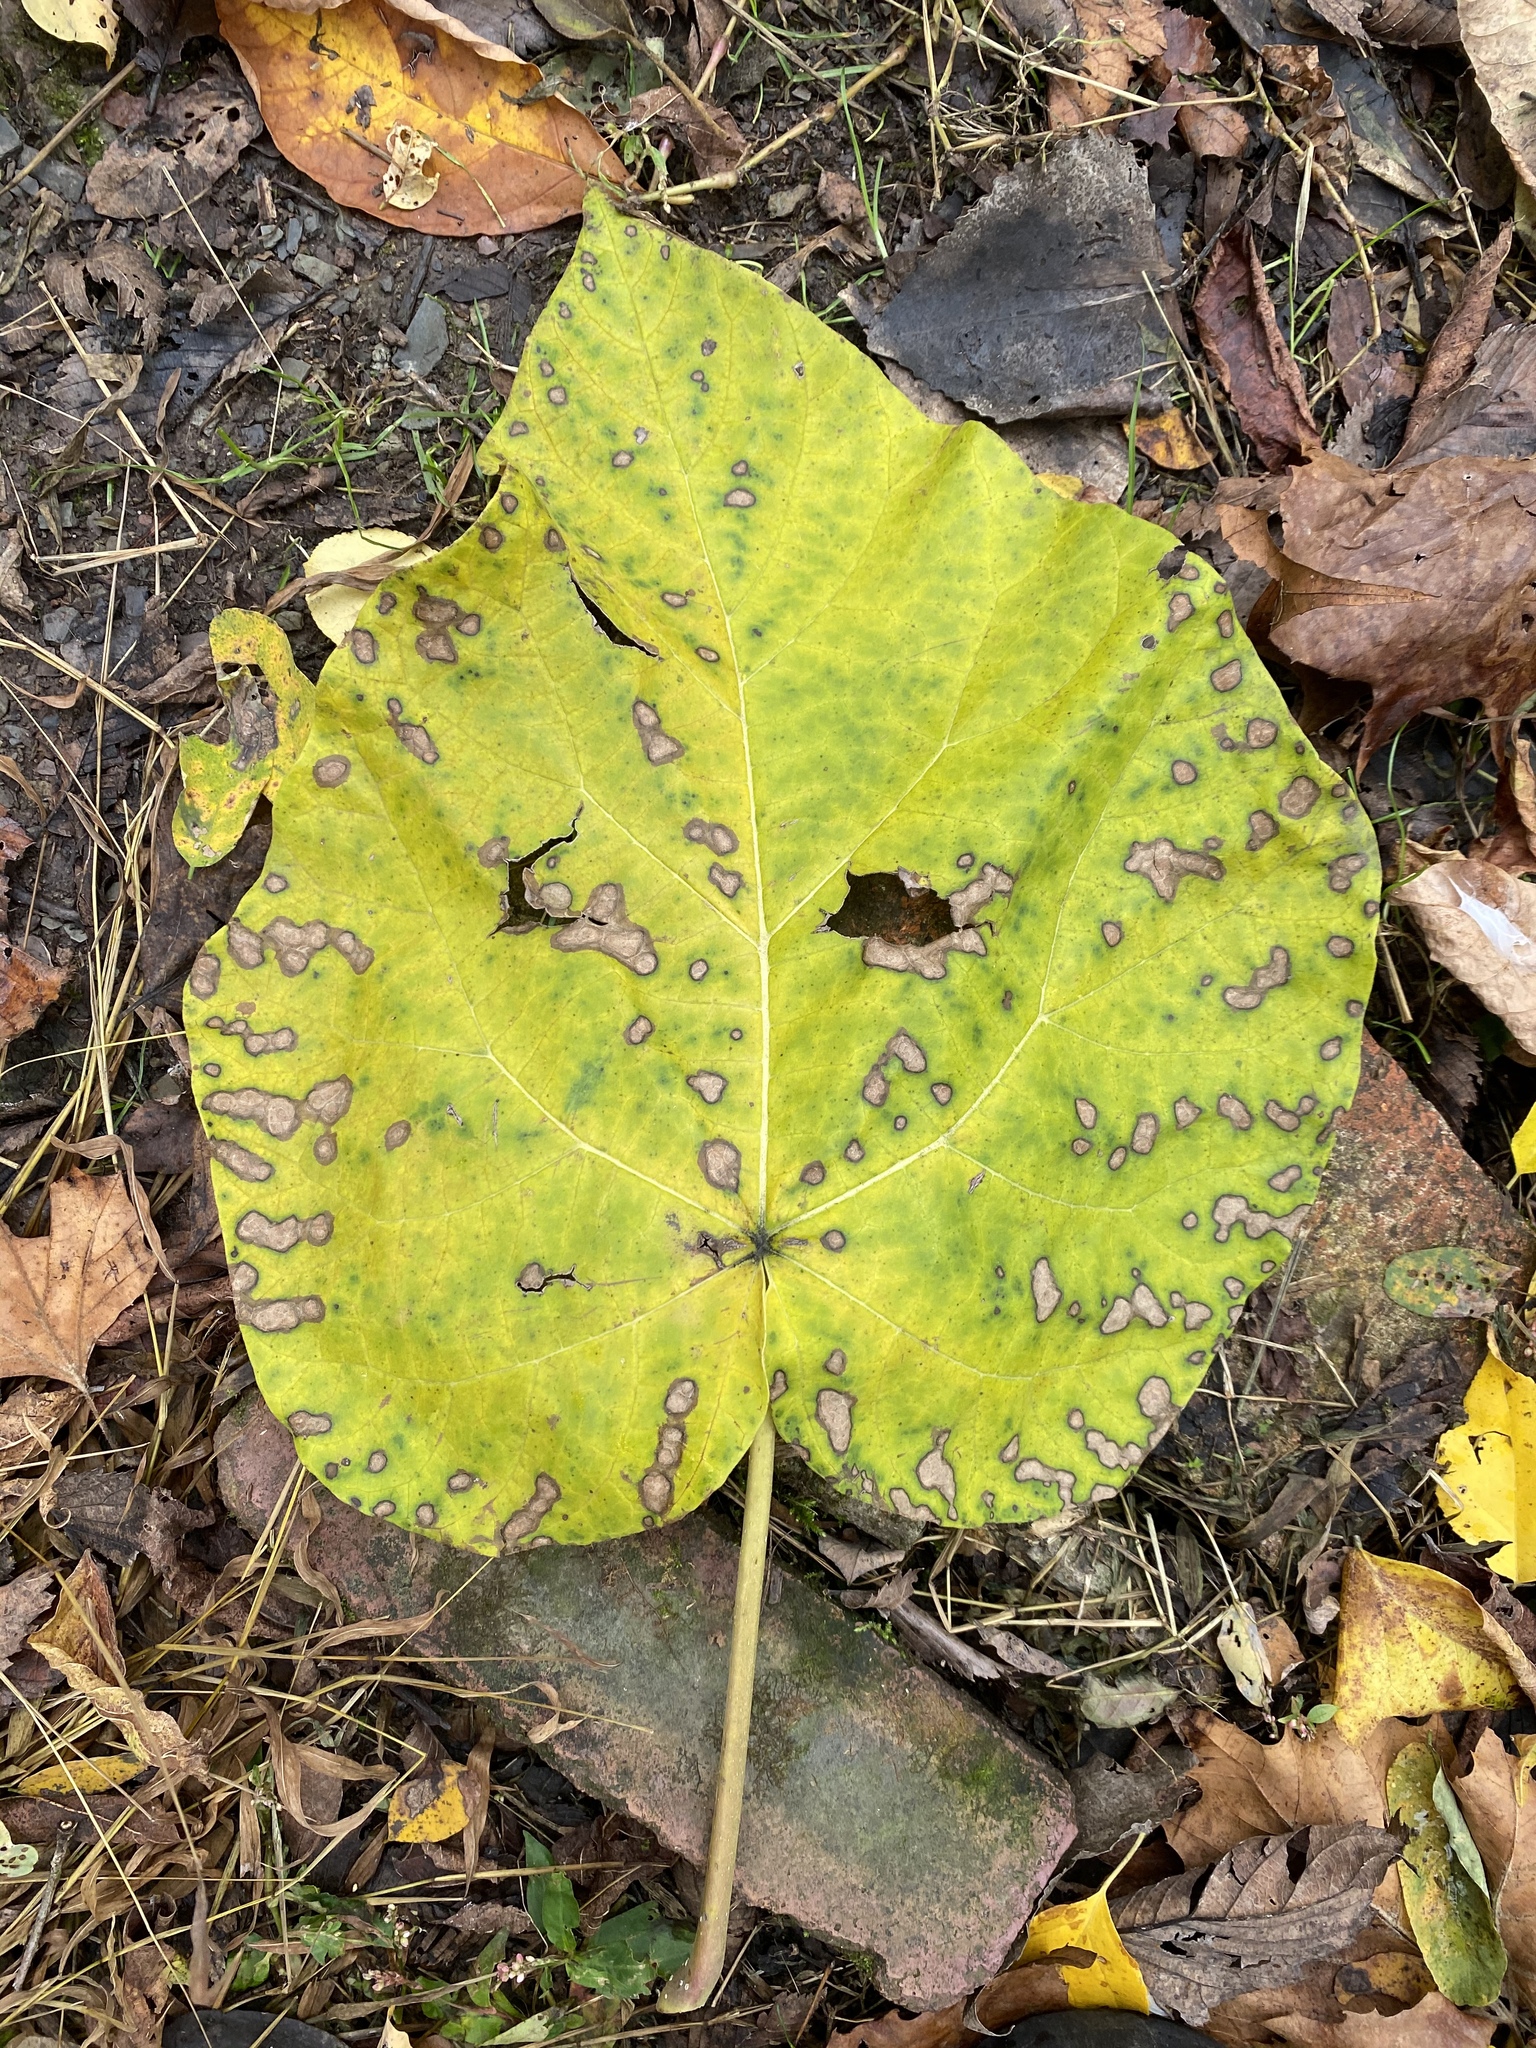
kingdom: Plantae
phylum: Tracheophyta
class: Magnoliopsida
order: Lamiales
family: Paulowniaceae
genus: Paulownia
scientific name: Paulownia tomentosa
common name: Foxglove-tree
